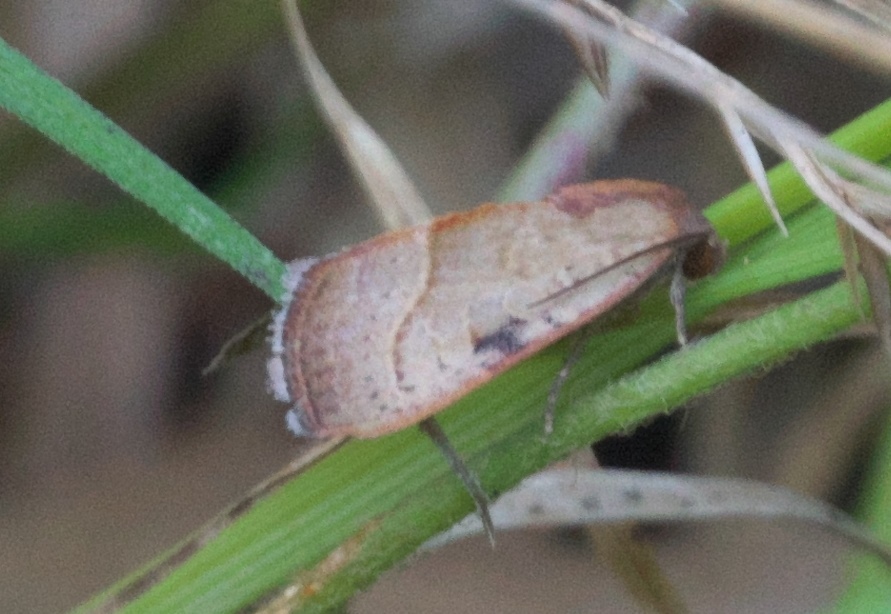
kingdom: Animalia
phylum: Arthropoda
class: Insecta
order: Lepidoptera
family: Noctuidae
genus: Galgula
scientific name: Galgula partita
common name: Wedgeling
